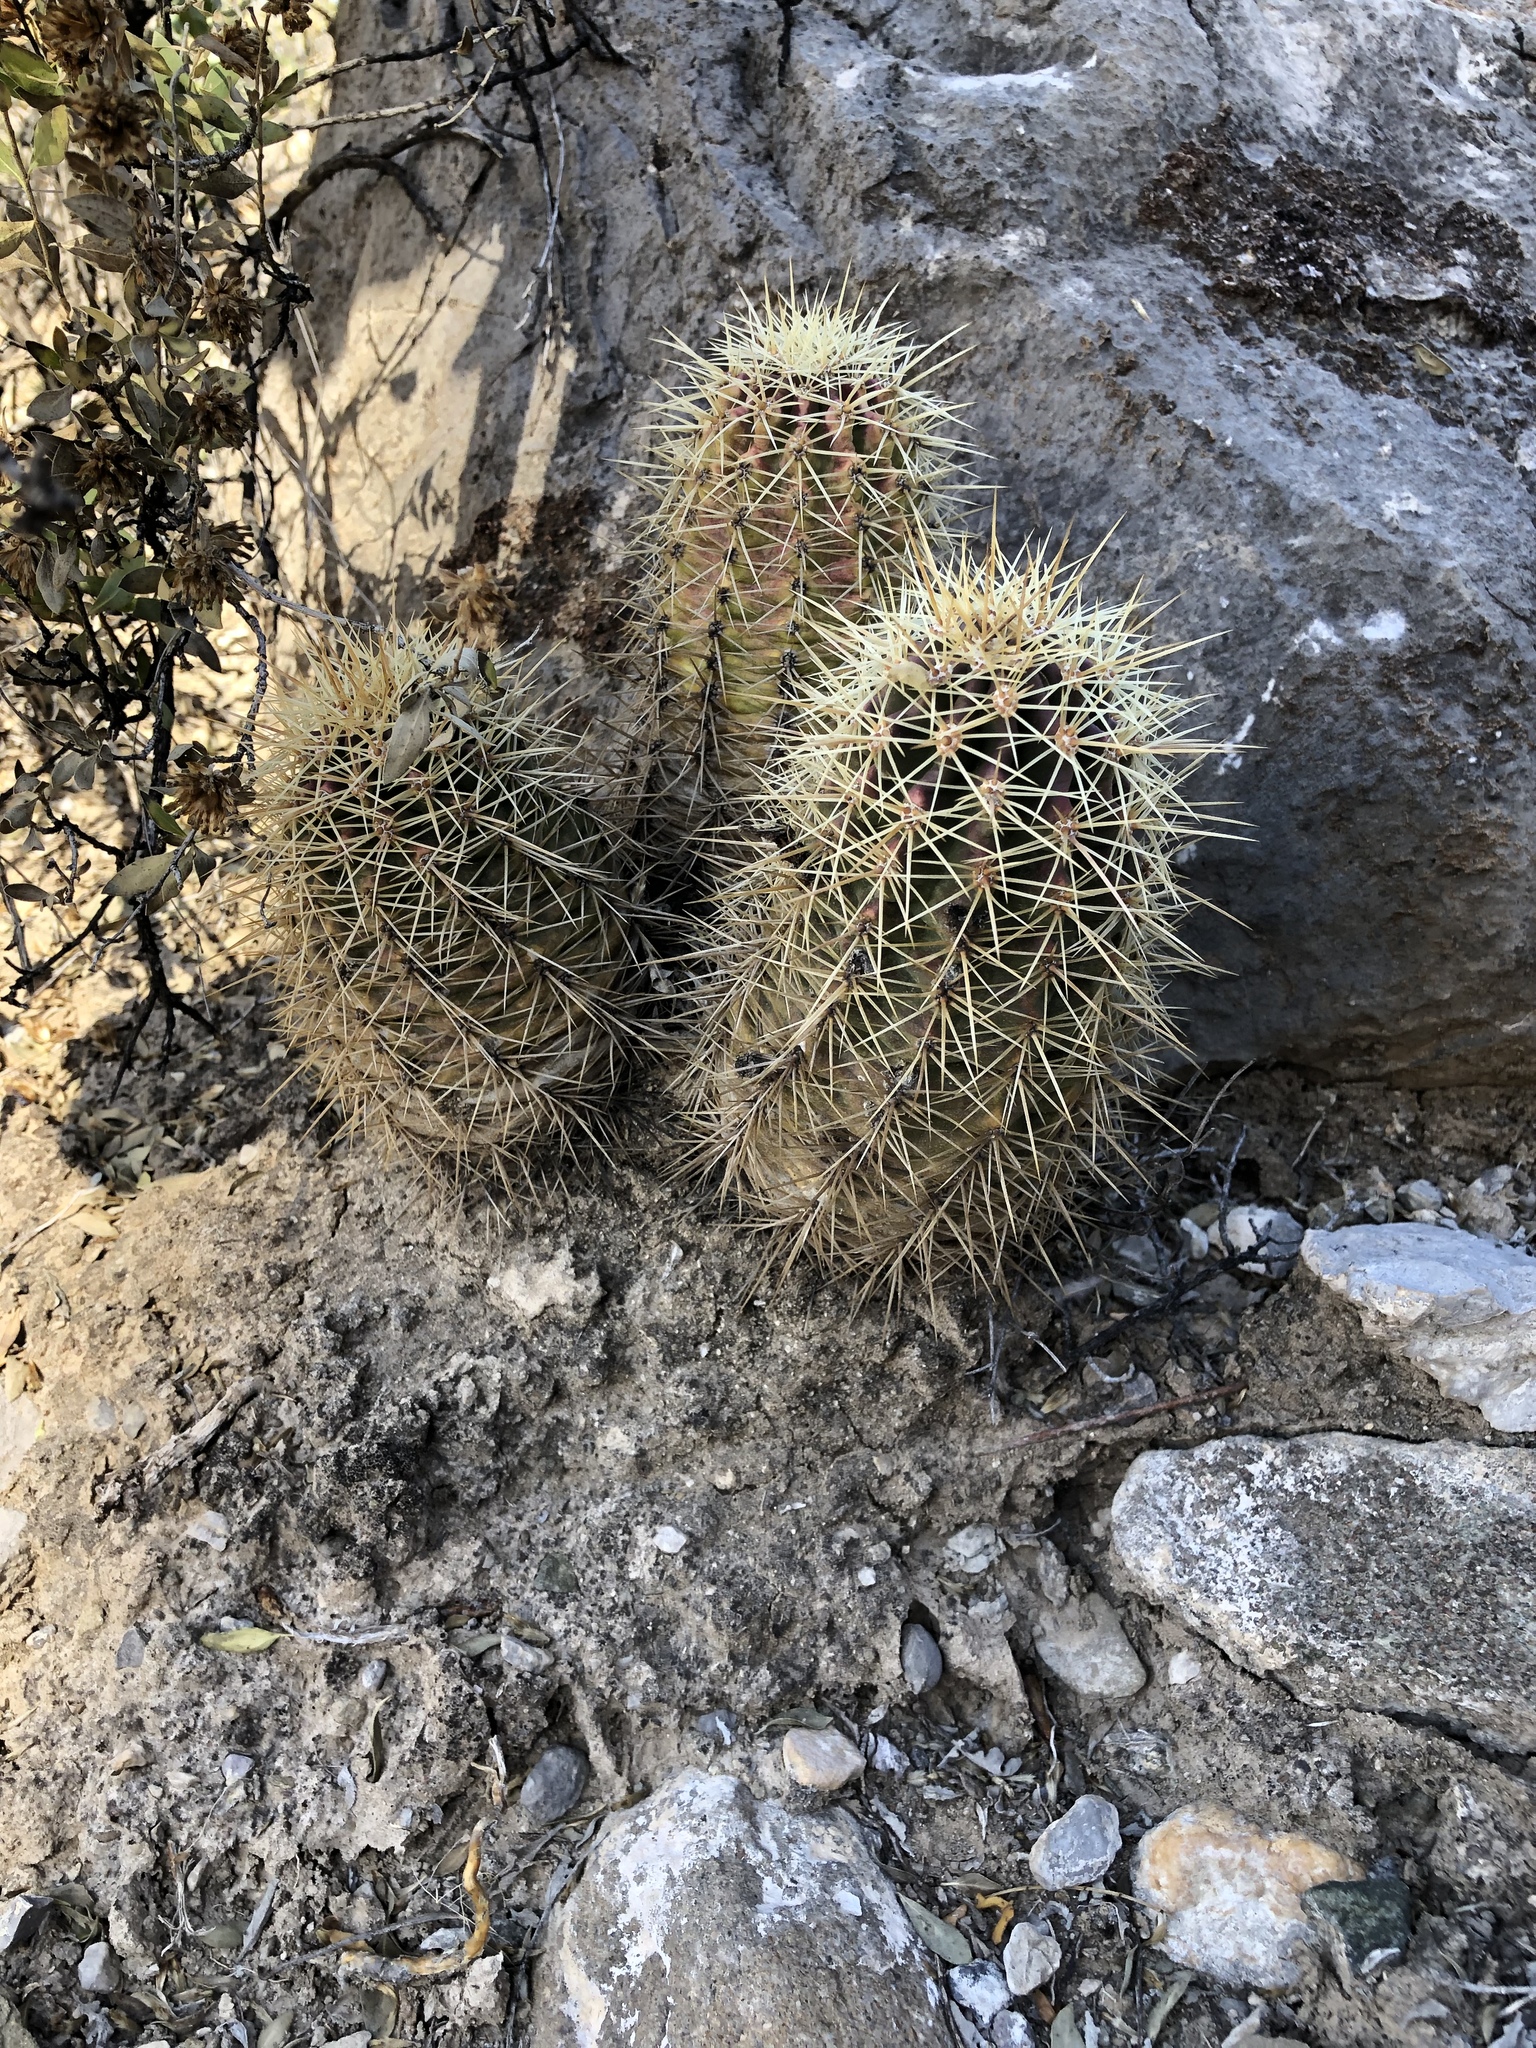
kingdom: Plantae
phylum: Tracheophyta
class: Magnoliopsida
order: Caryophyllales
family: Cactaceae
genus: Echinocereus
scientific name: Echinocereus coccineus
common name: Scarlet hedgehog cactus
